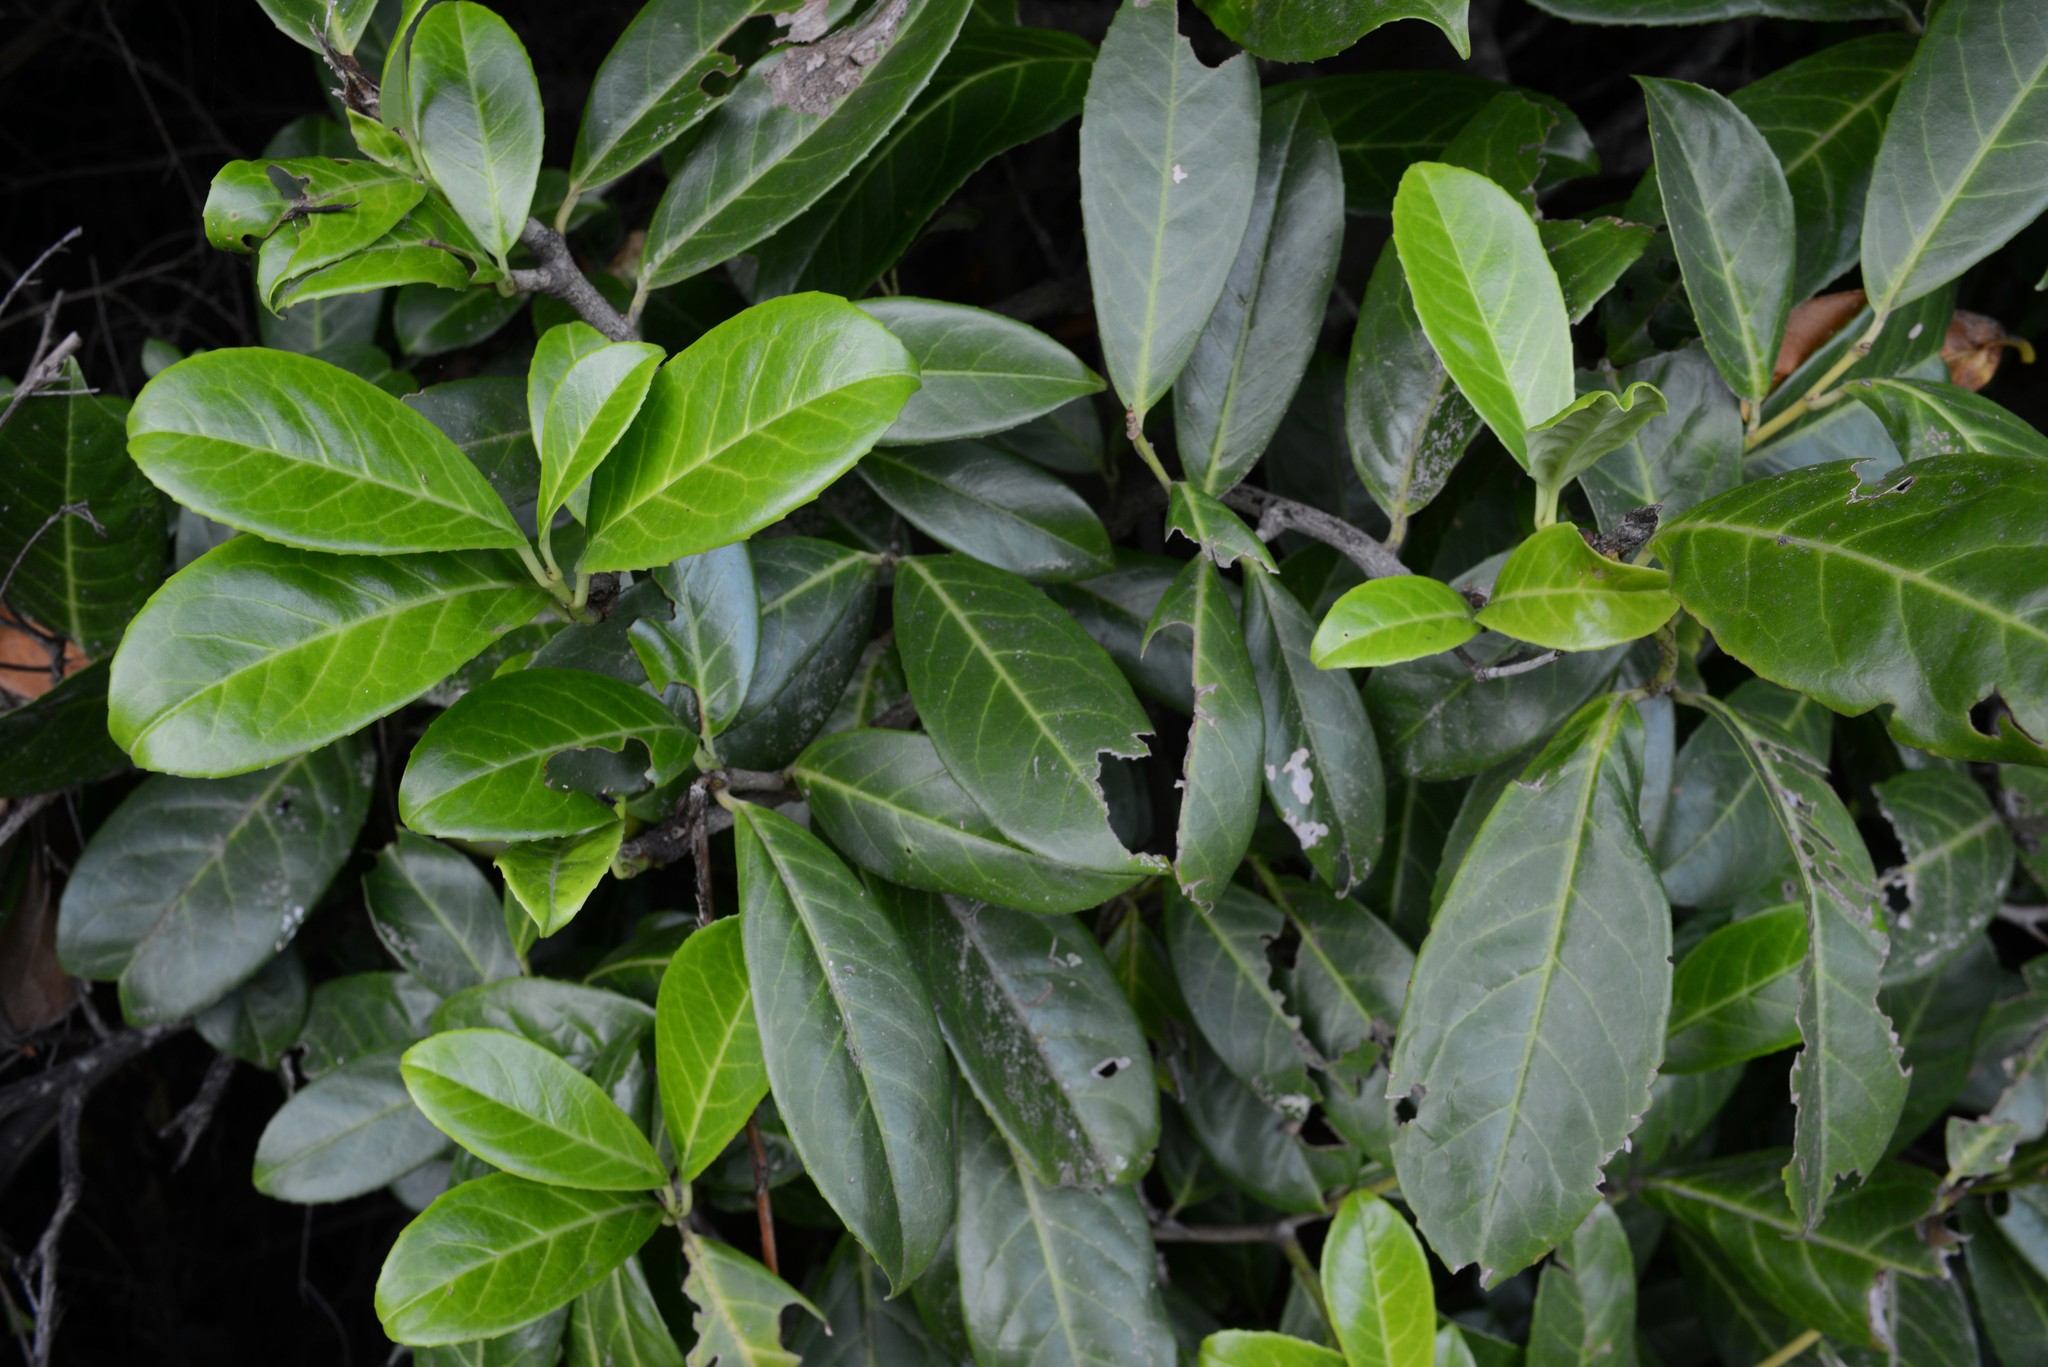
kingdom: Plantae
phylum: Tracheophyta
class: Magnoliopsida
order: Rosales
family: Rosaceae
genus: Prunus
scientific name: Prunus laurocerasus
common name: Cherry laurel
